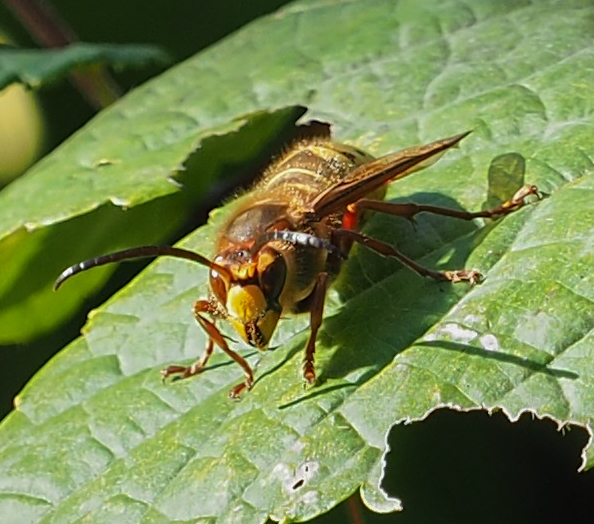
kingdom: Animalia
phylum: Arthropoda
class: Insecta
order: Hymenoptera
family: Vespidae
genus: Vespa
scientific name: Vespa crabro
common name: Hornet
